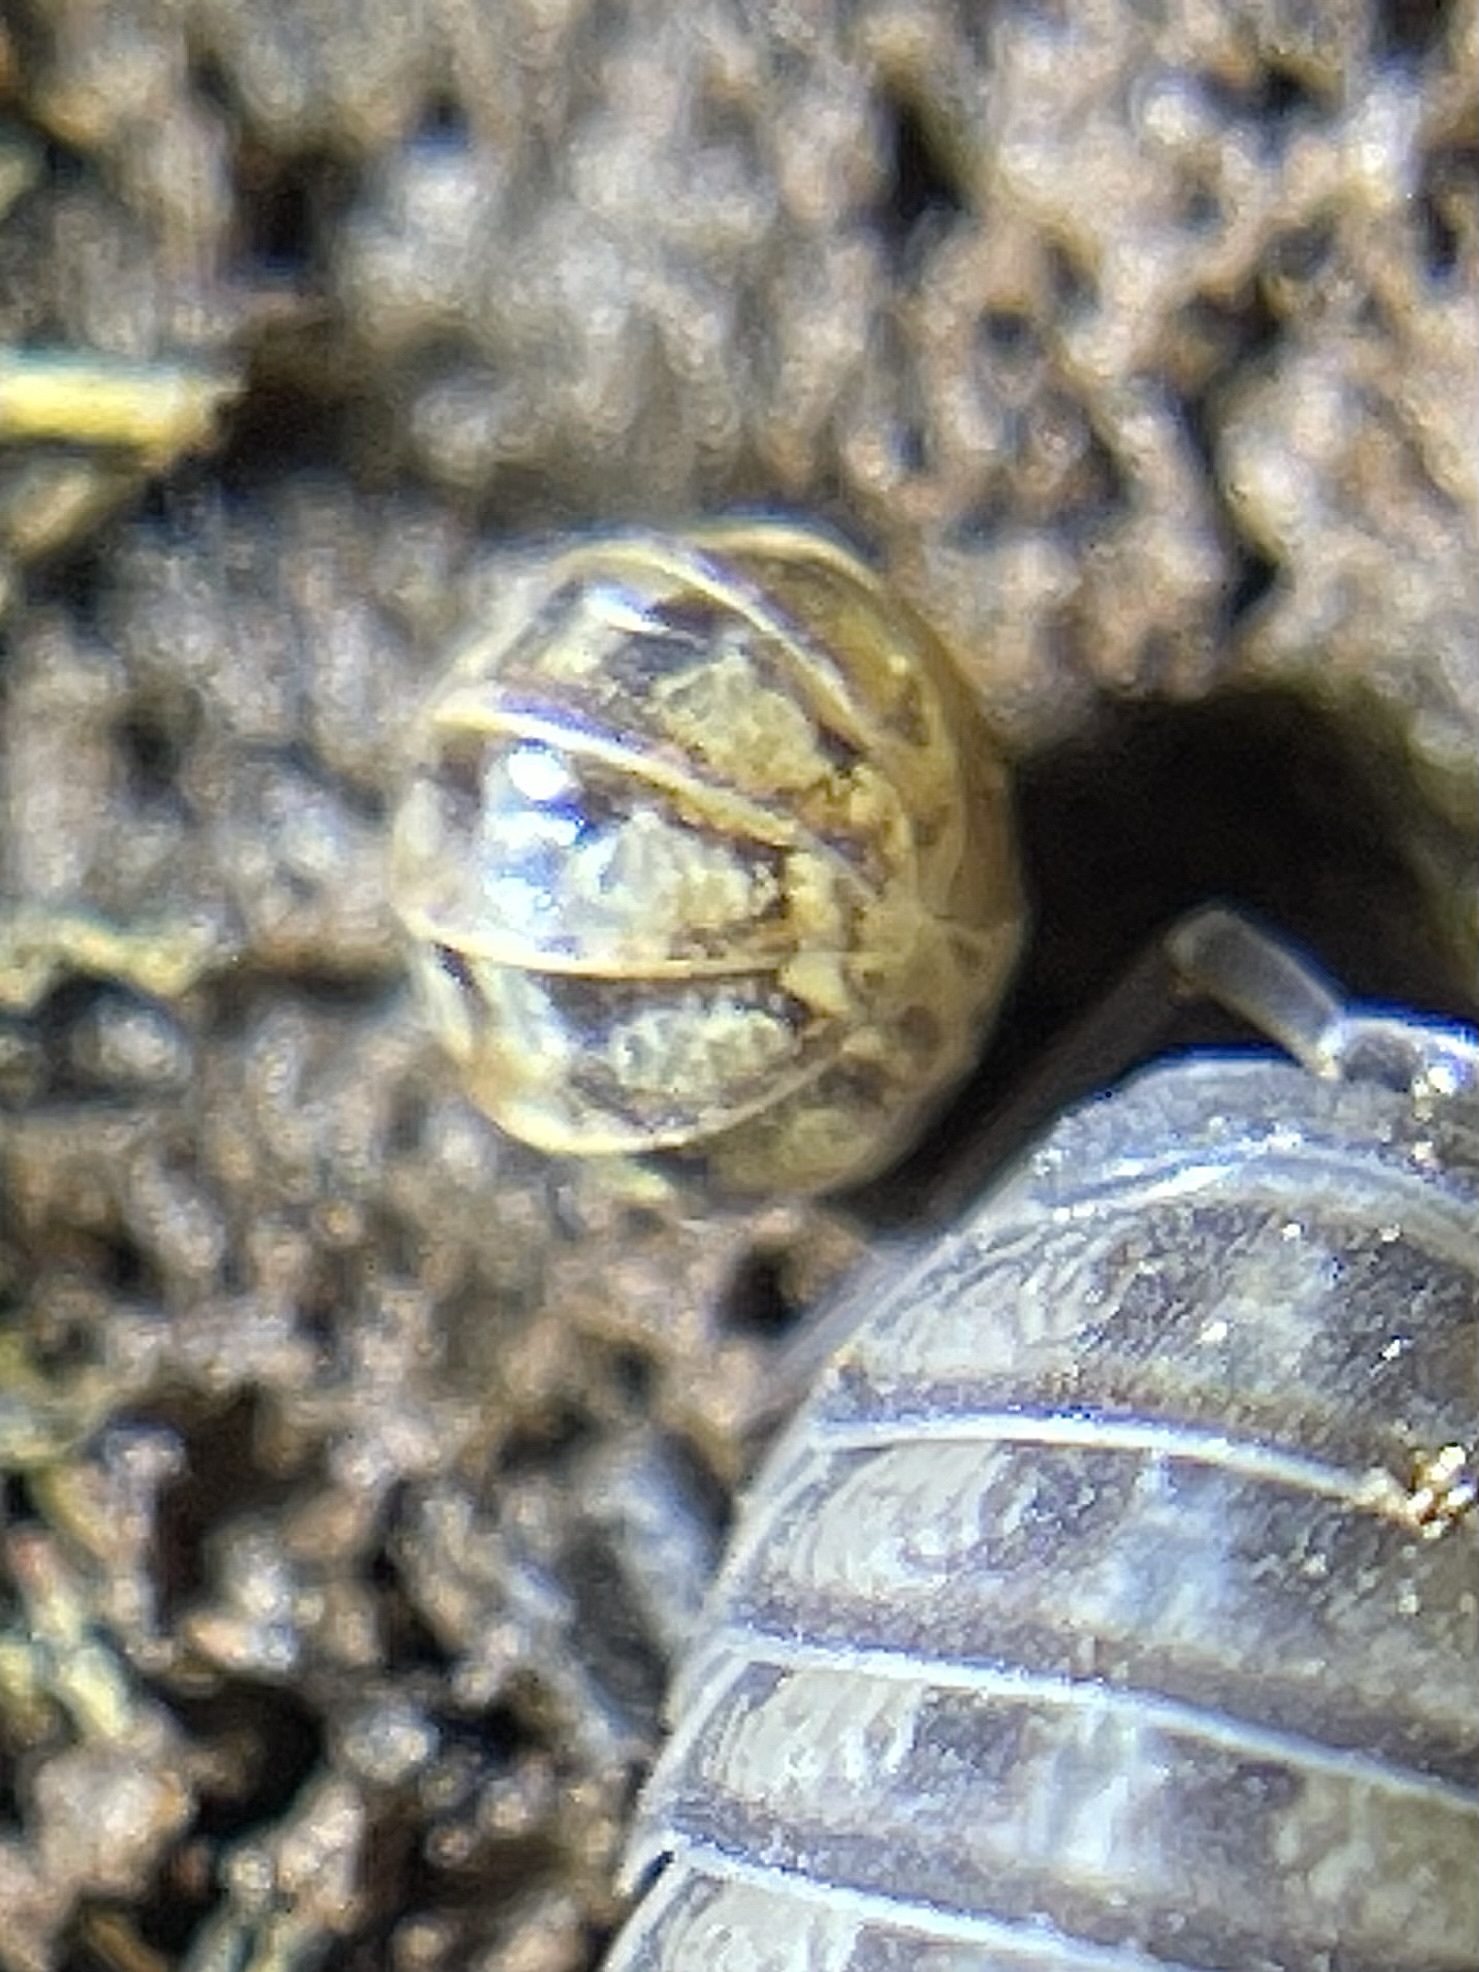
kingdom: Animalia
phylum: Arthropoda
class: Malacostraca
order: Isopoda
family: Armadillidiidae
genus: Armadillidium
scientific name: Armadillidium vulgare
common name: Common pill woodlouse
